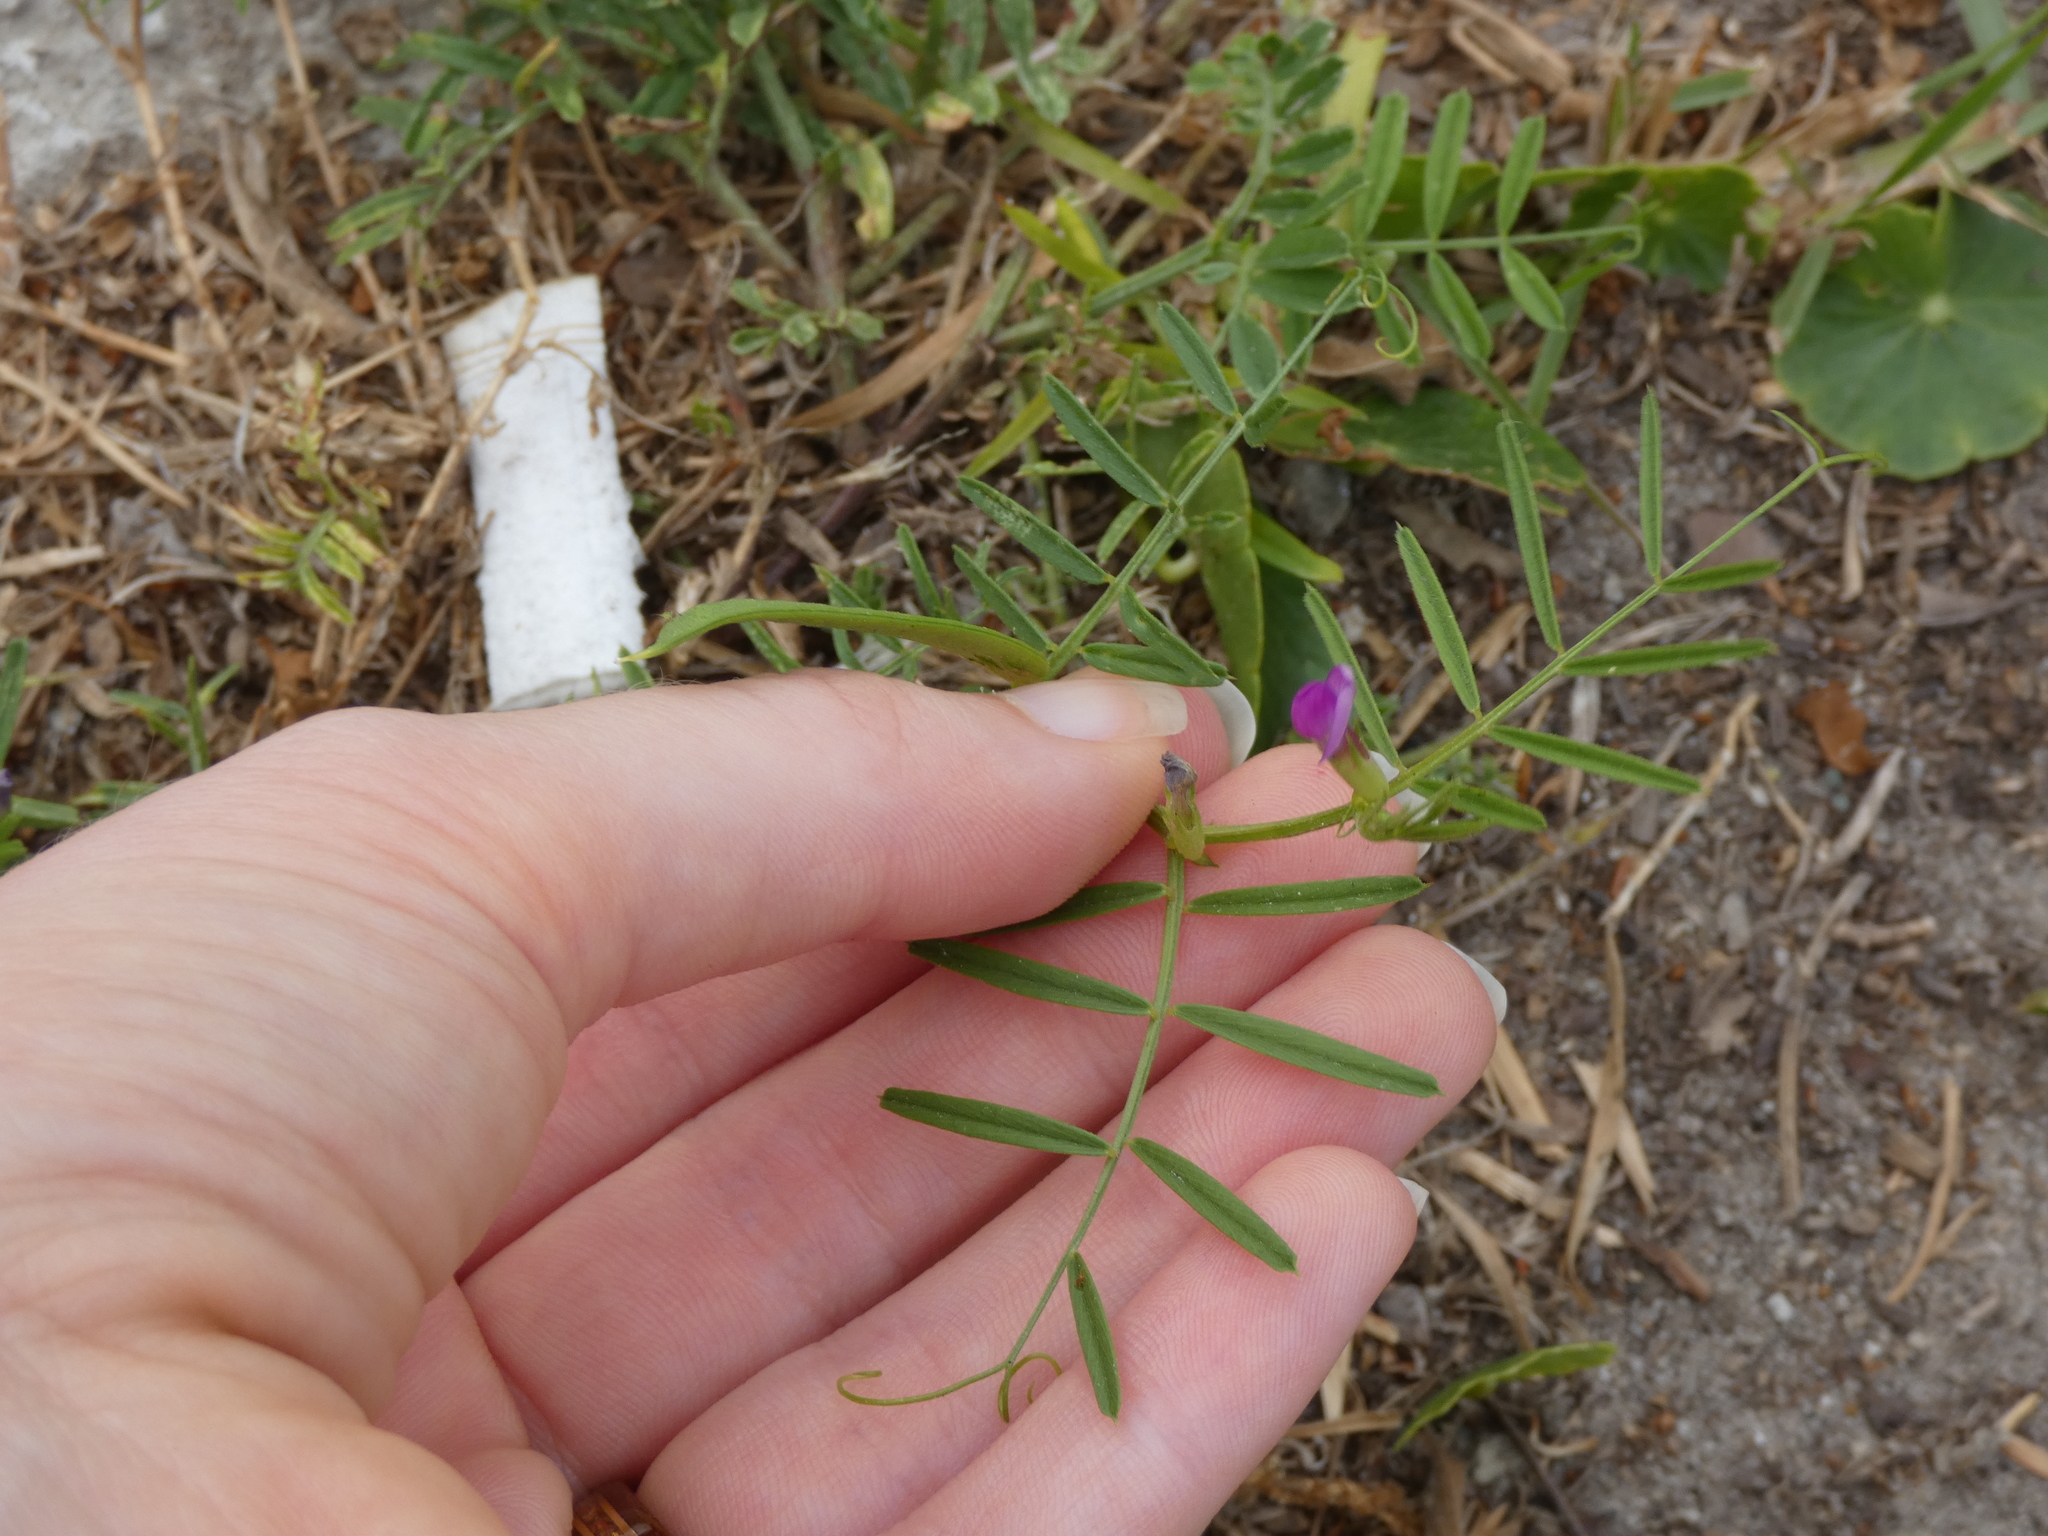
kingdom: Plantae
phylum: Tracheophyta
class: Magnoliopsida
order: Fabales
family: Fabaceae
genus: Vicia
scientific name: Vicia sativa
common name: Garden vetch
